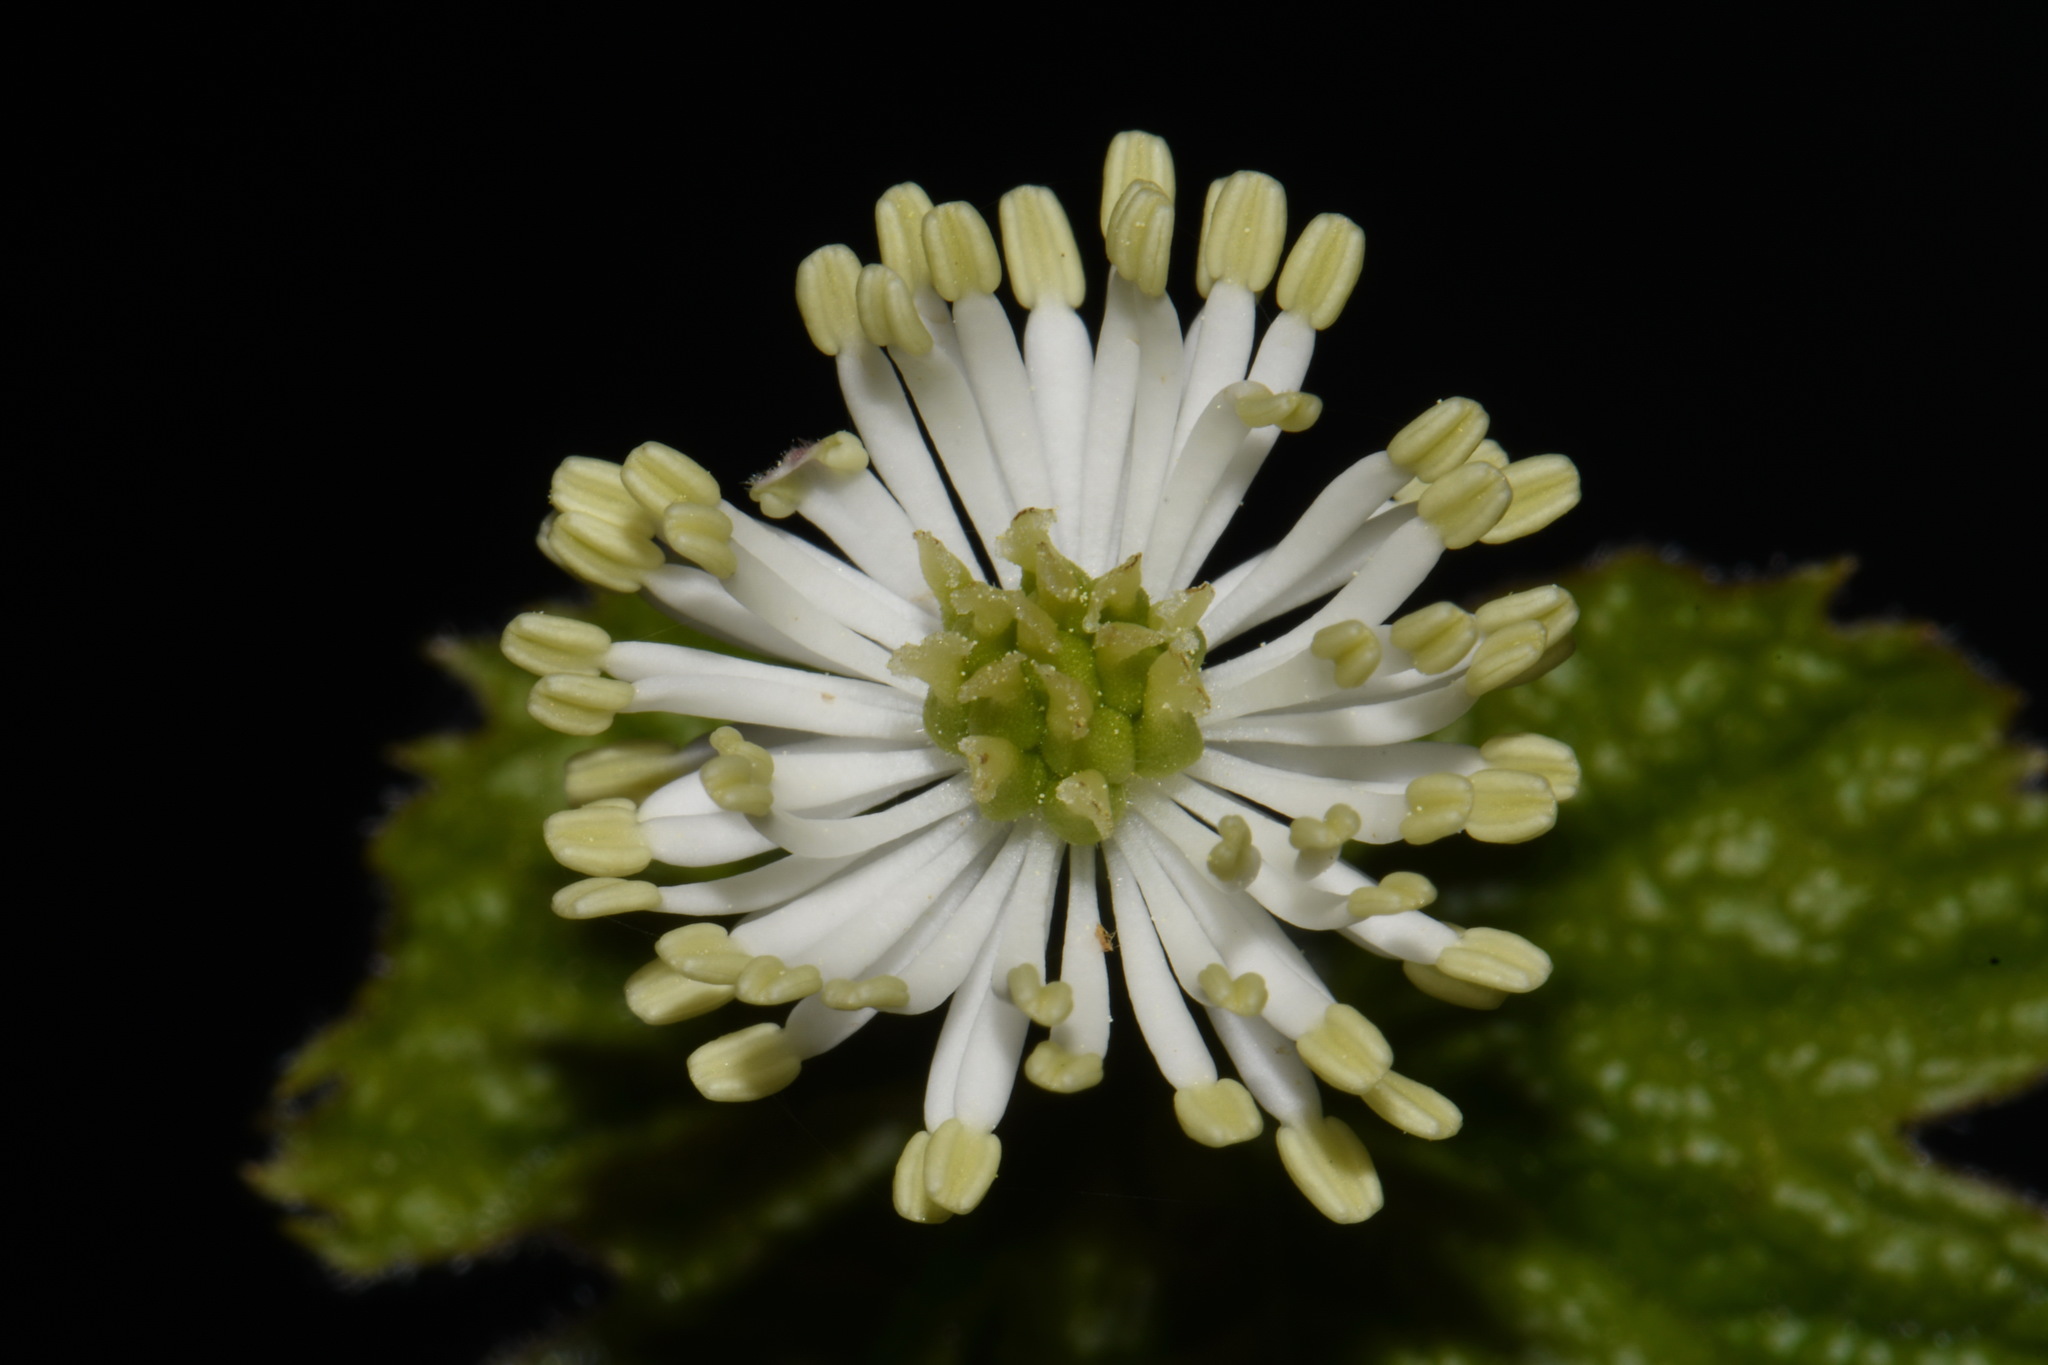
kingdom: Plantae
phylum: Tracheophyta
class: Magnoliopsida
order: Ranunculales
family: Ranunculaceae
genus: Hydrastis
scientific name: Hydrastis canadensis
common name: Goldenseal
